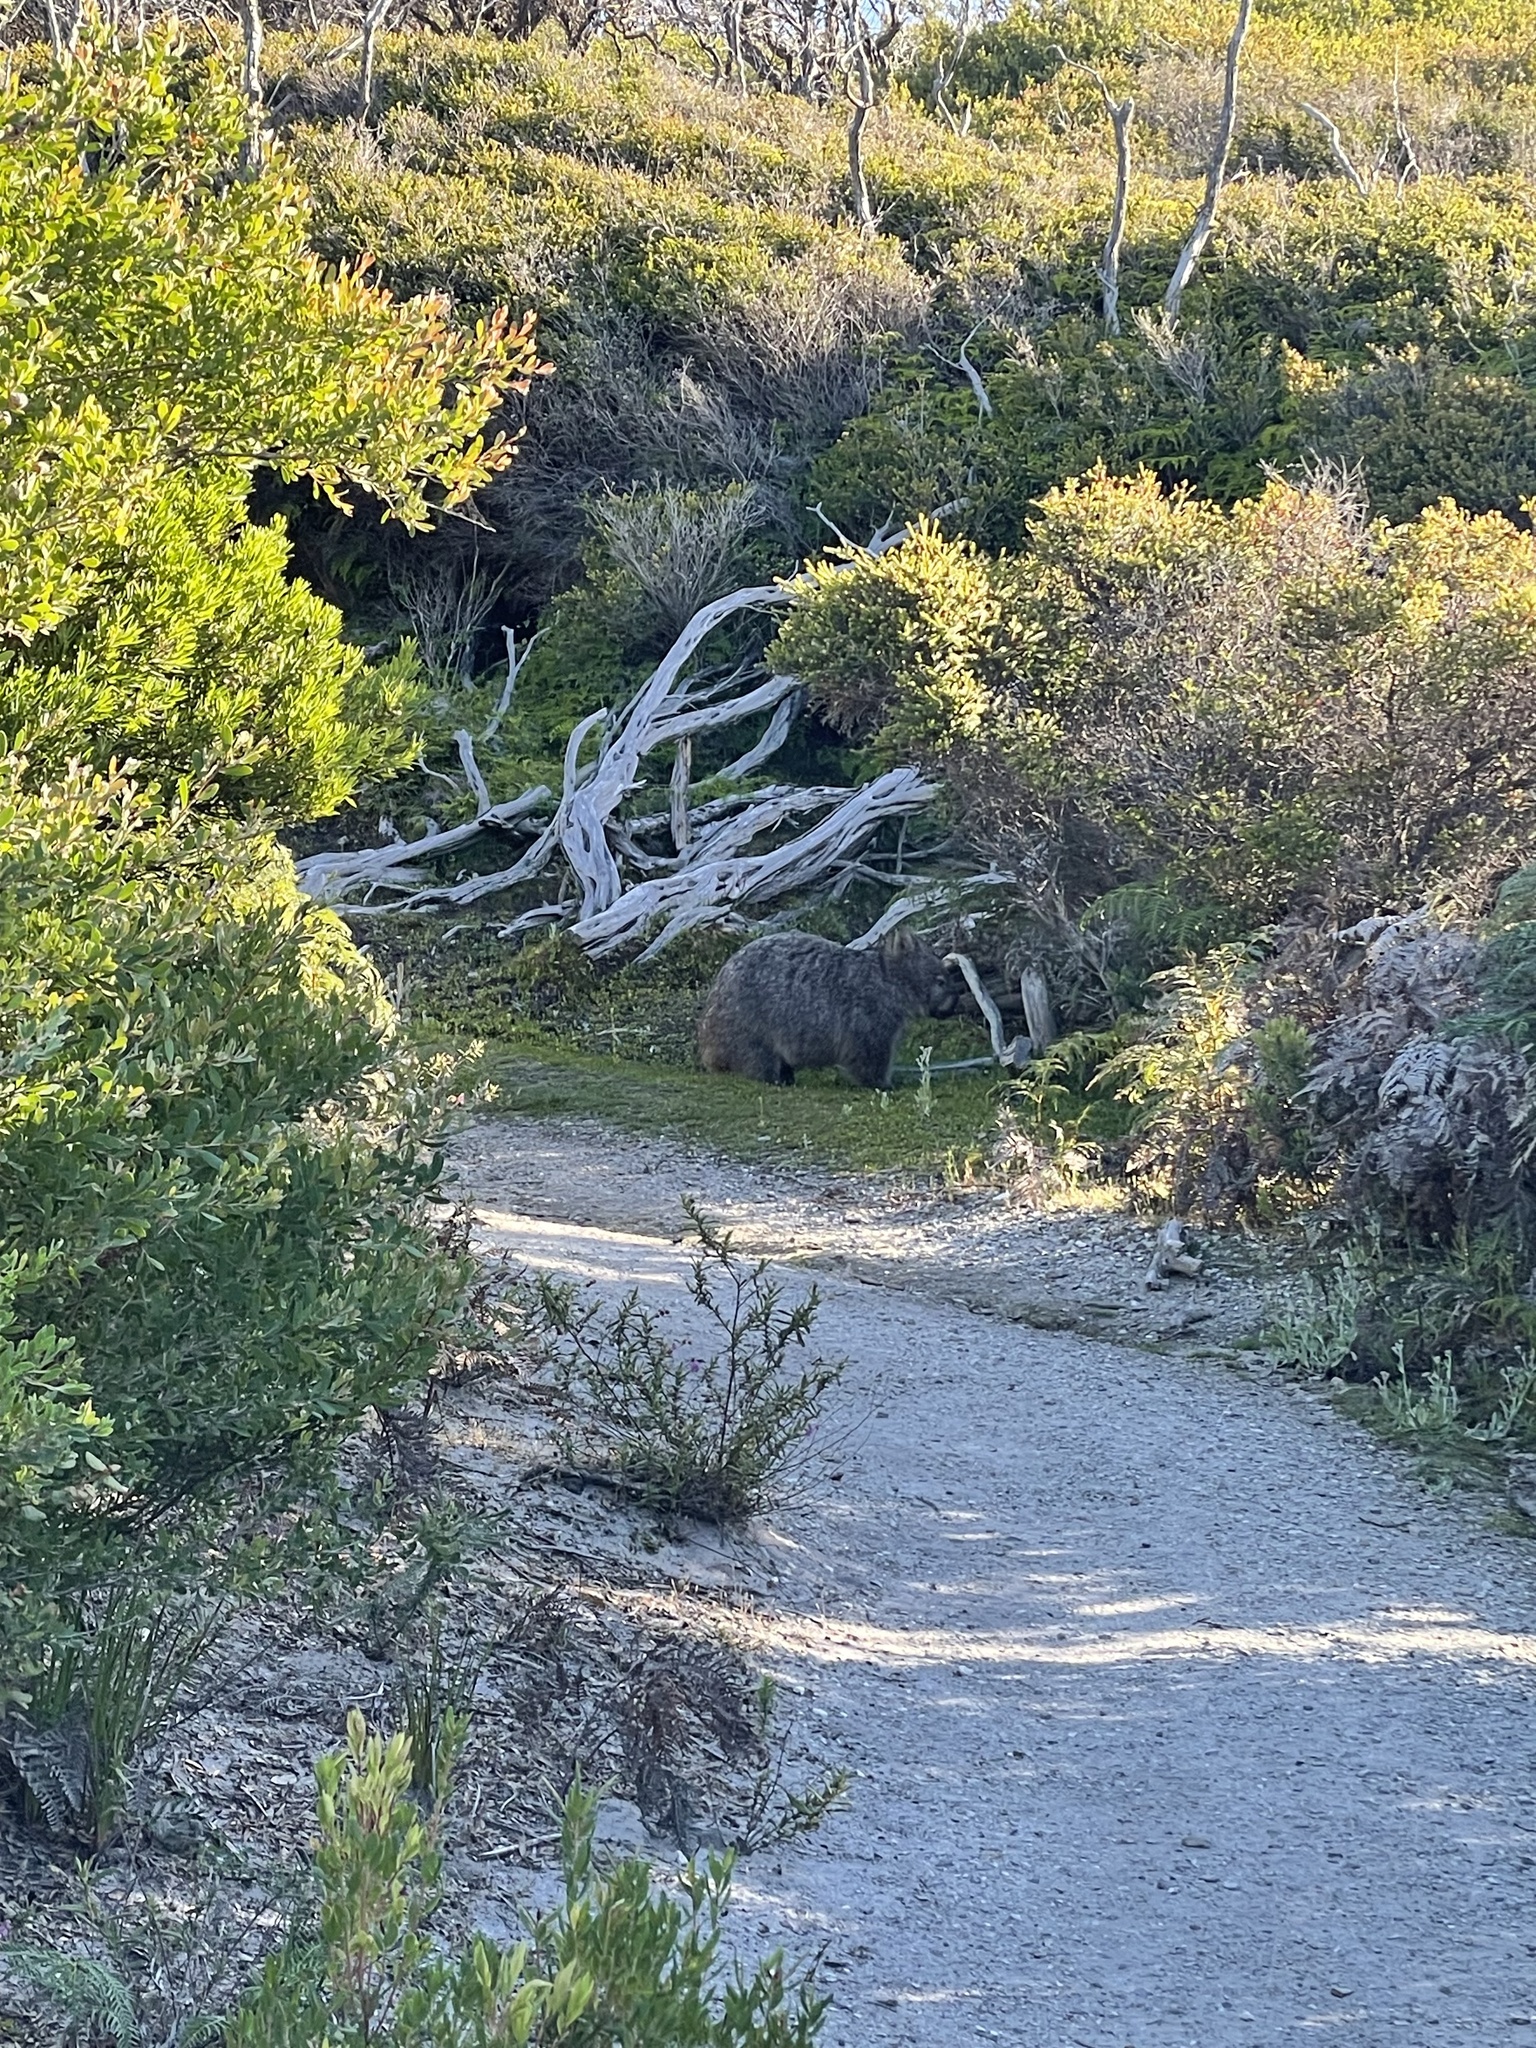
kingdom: Animalia
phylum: Chordata
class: Mammalia
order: Diprotodontia
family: Vombatidae
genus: Vombatus
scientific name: Vombatus ursinus
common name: Common wombat
